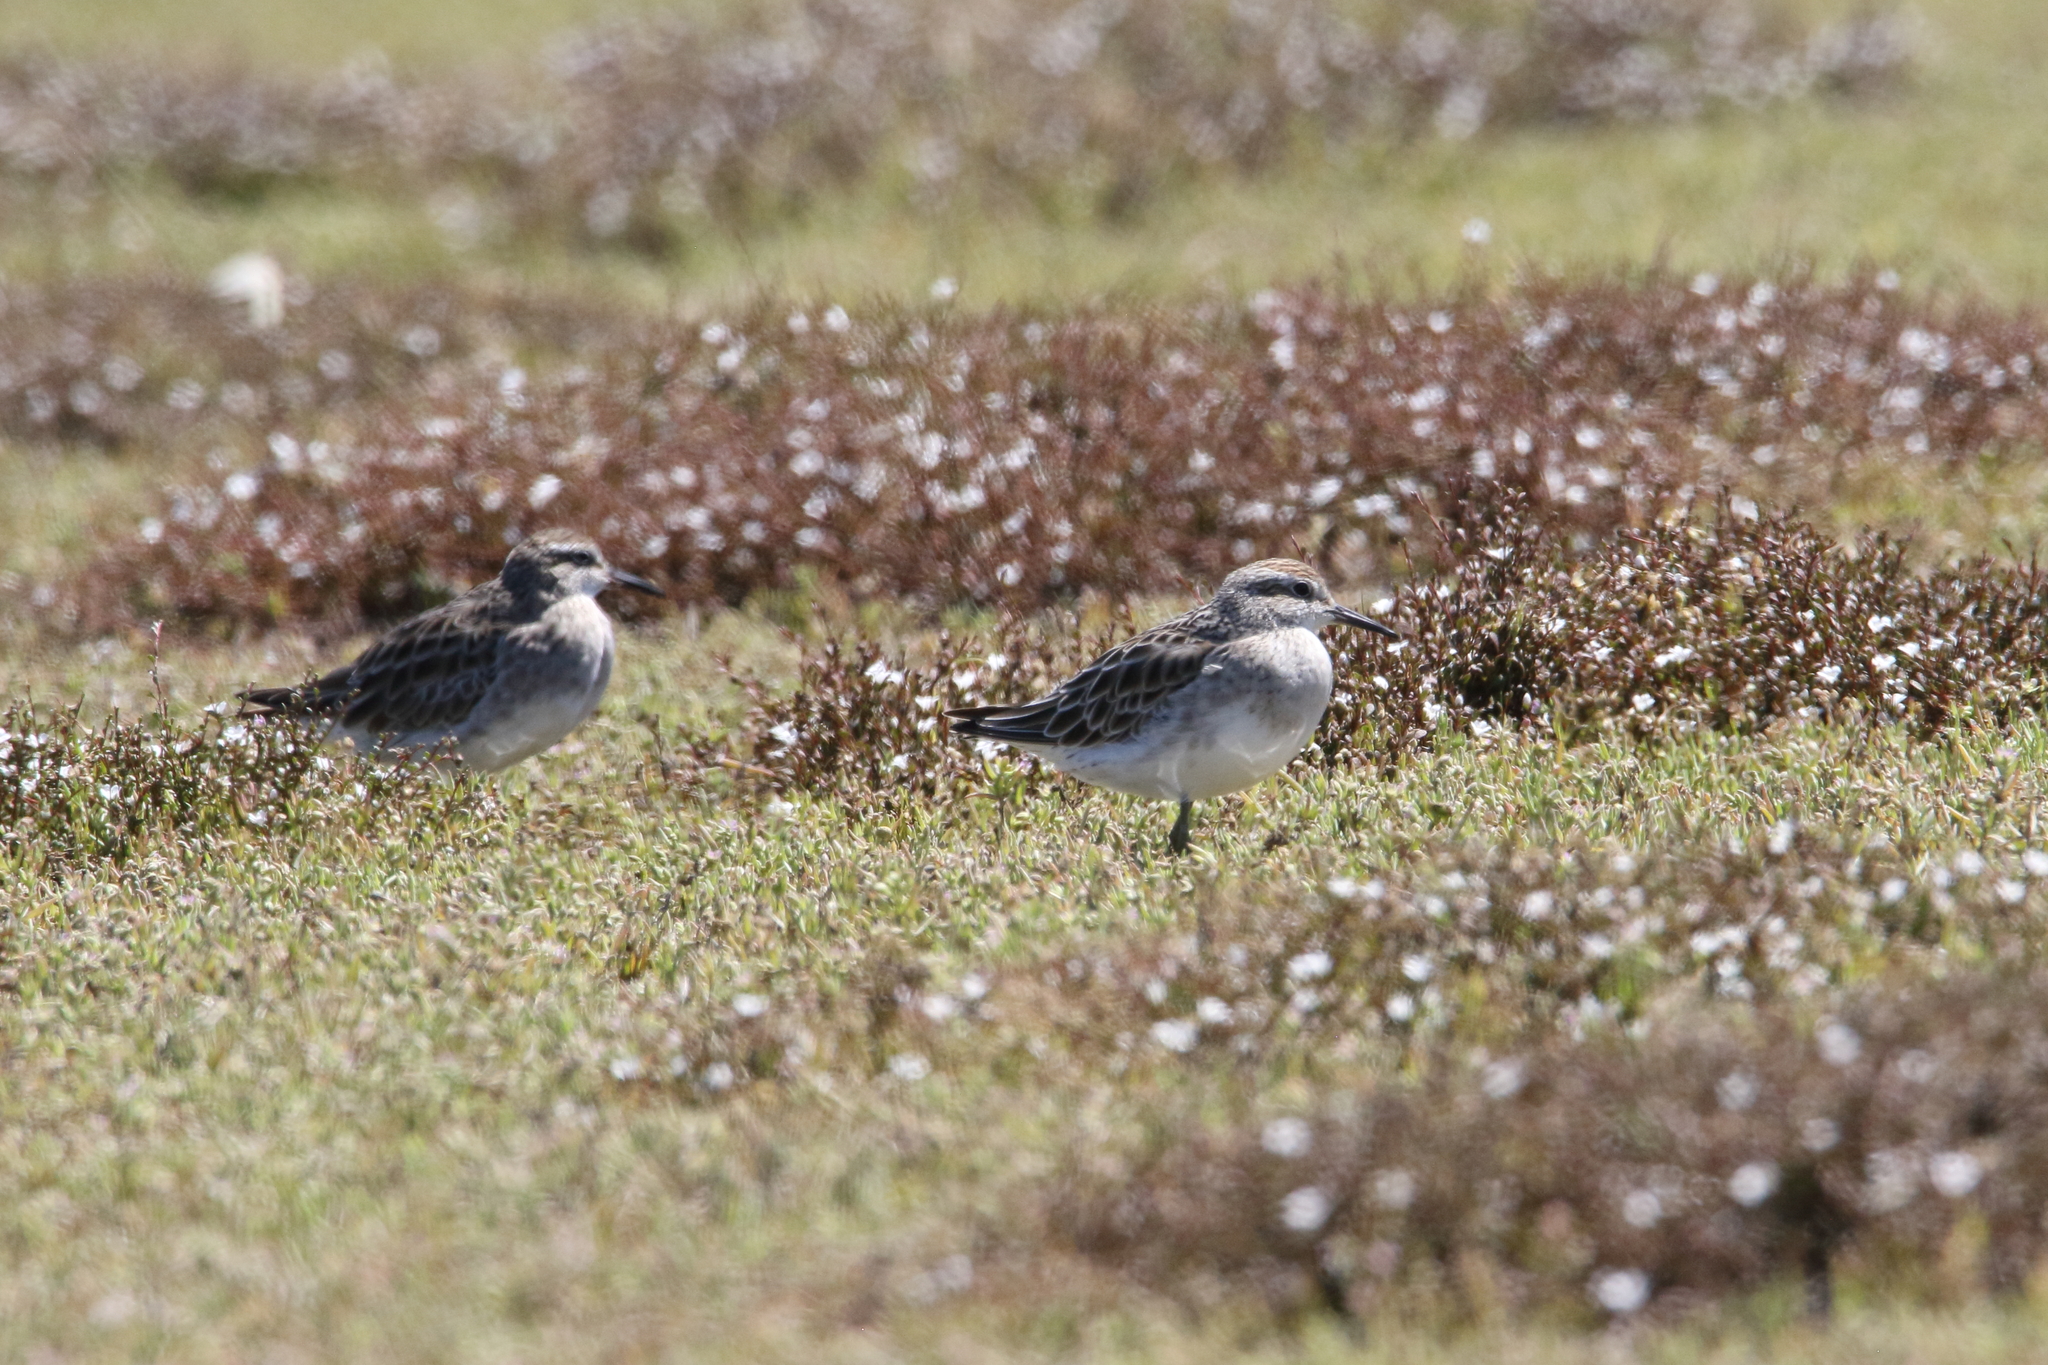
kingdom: Animalia
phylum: Chordata
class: Aves
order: Charadriiformes
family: Scolopacidae
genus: Calidris
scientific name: Calidris acuminata
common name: Sharp-tailed sandpiper
